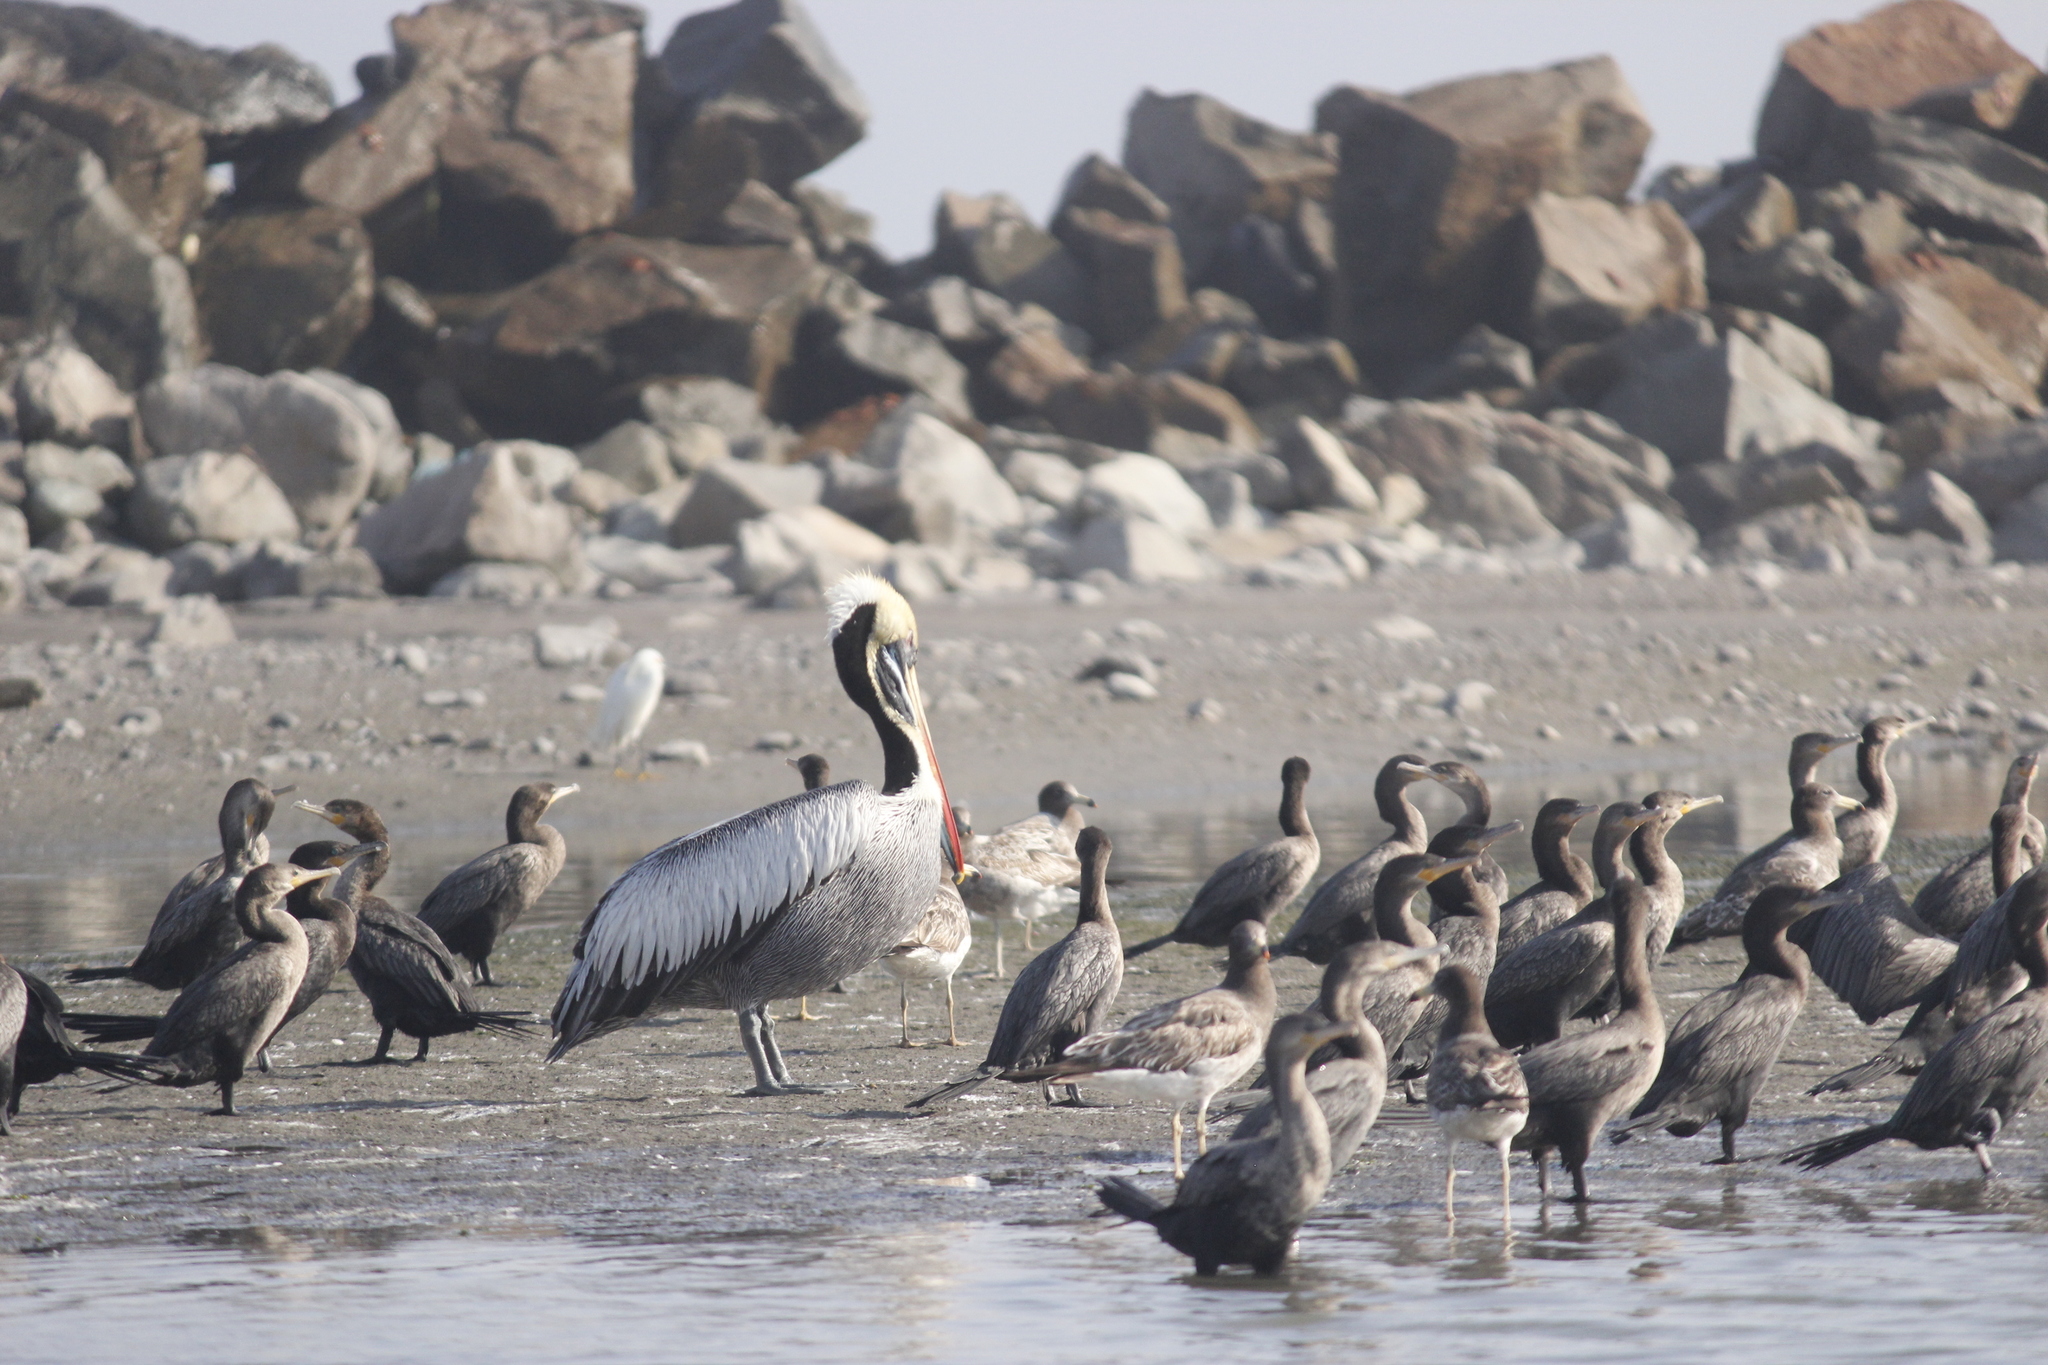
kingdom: Animalia
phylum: Chordata
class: Aves
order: Pelecaniformes
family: Pelecanidae
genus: Pelecanus
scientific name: Pelecanus thagus
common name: Peruvian pelican
